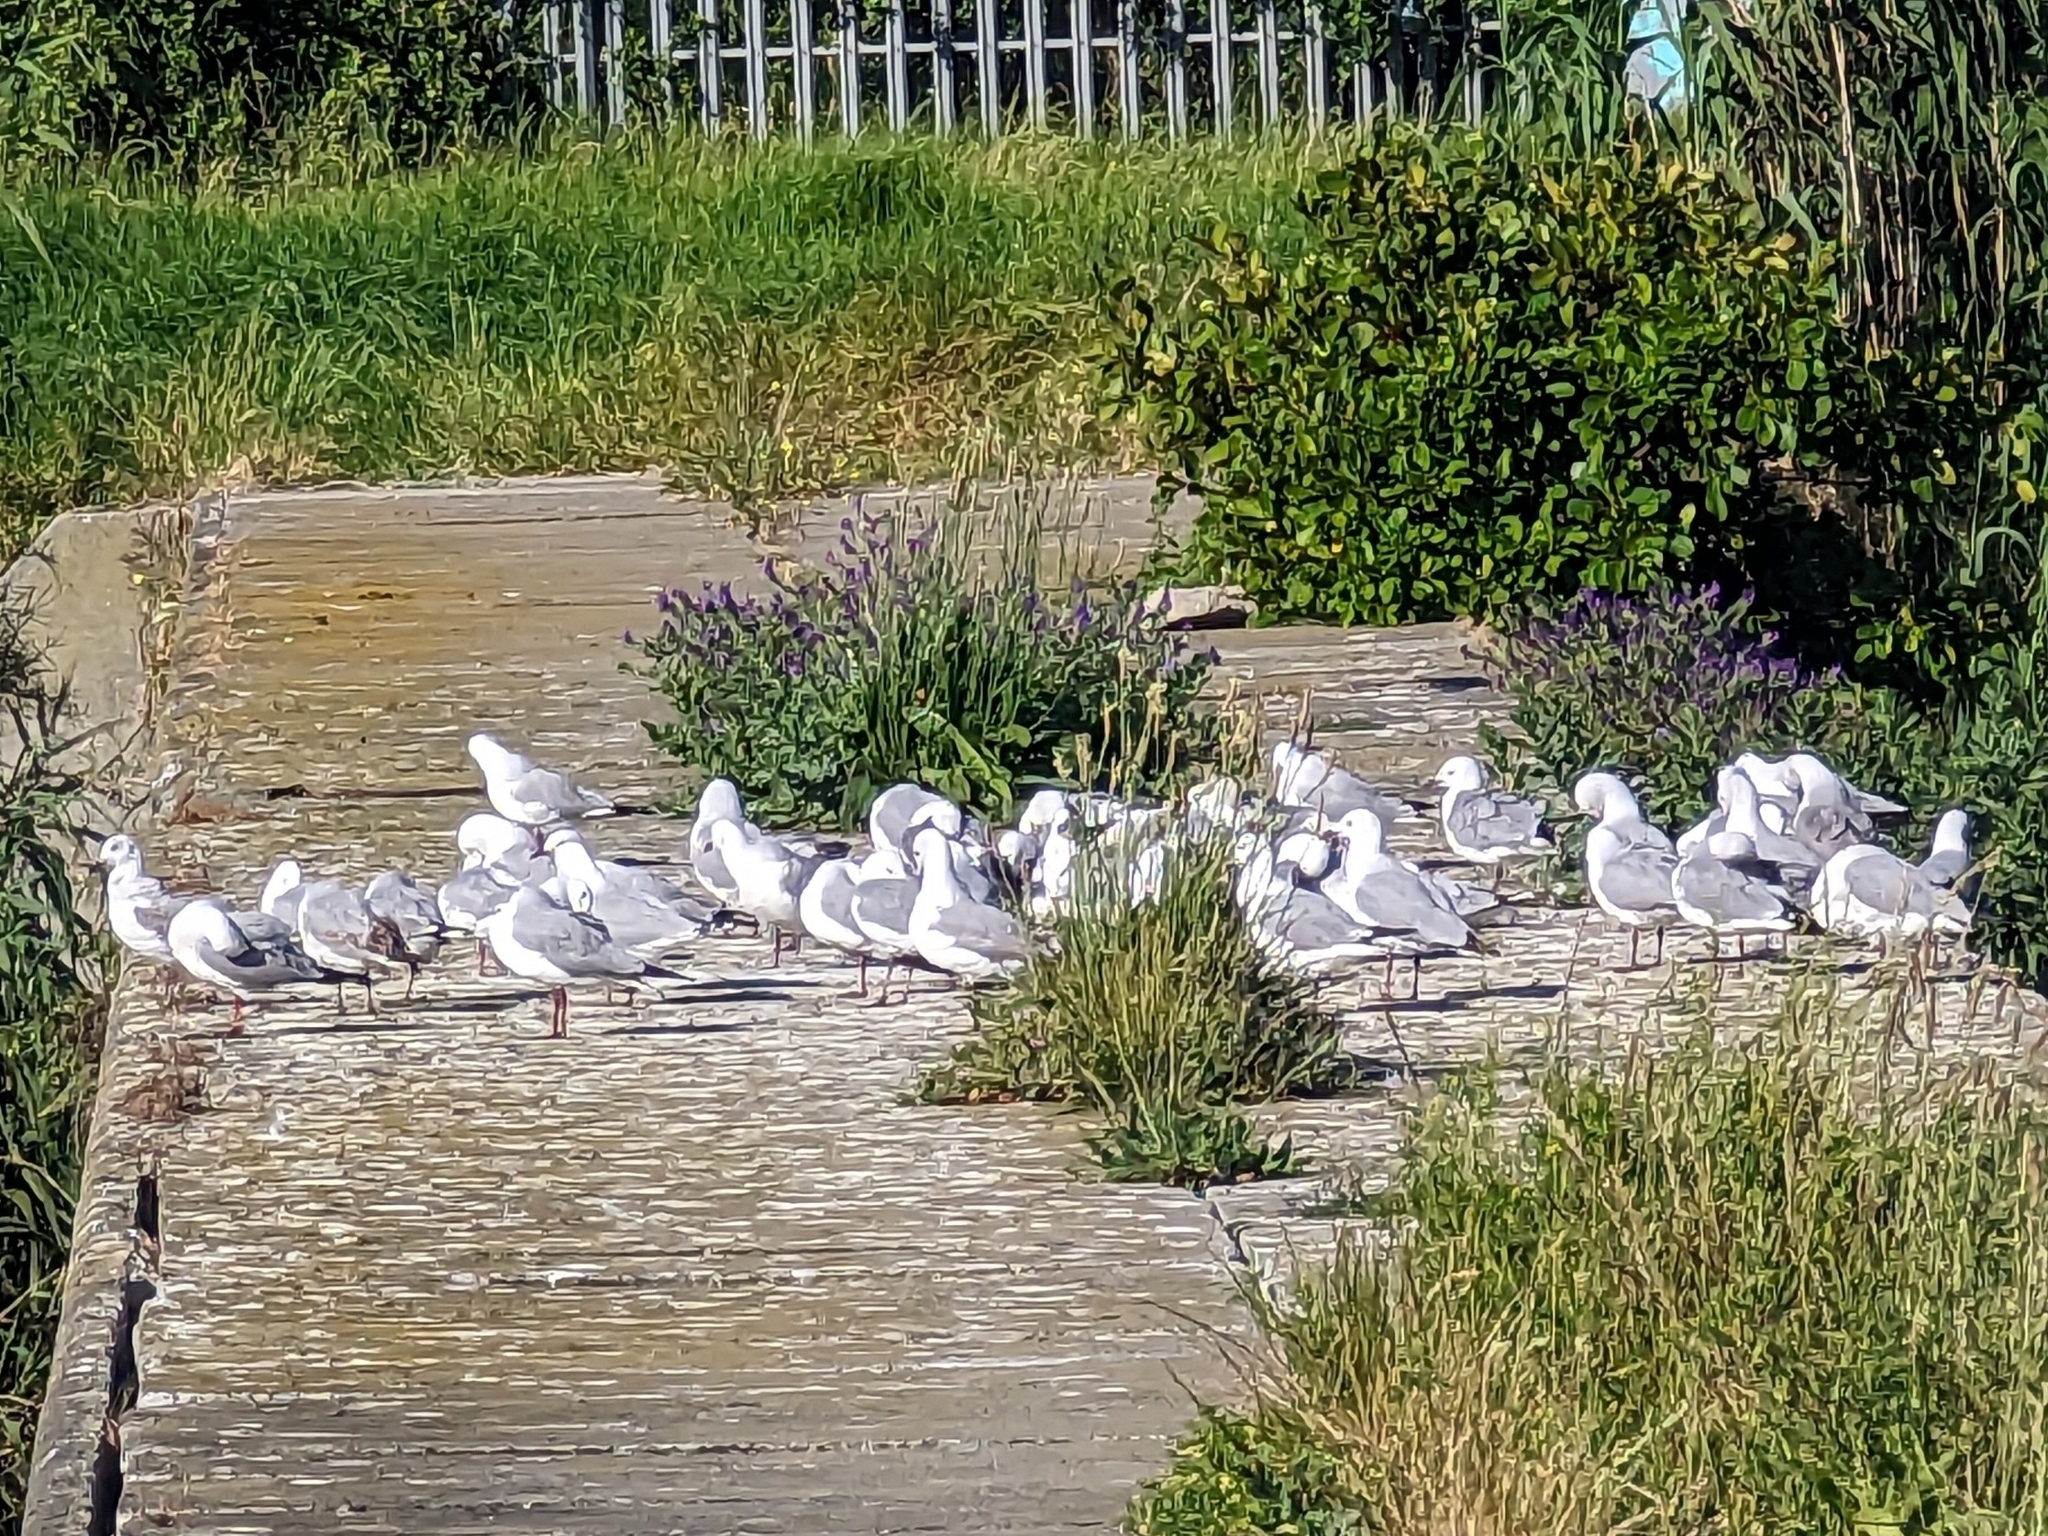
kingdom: Animalia
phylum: Chordata
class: Aves
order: Charadriiformes
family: Laridae
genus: Chroicocephalus
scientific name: Chroicocephalus hartlaubii
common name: Hartlaub's gull
